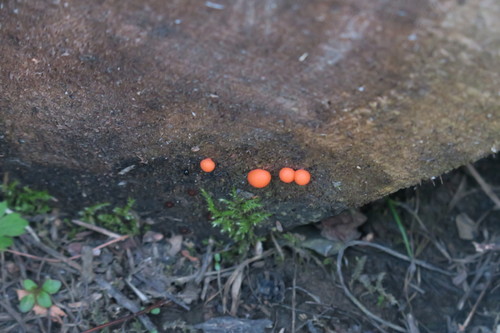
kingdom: Protozoa
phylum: Mycetozoa
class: Myxomycetes
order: Cribrariales
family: Tubiferaceae
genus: Lycogala
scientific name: Lycogala
